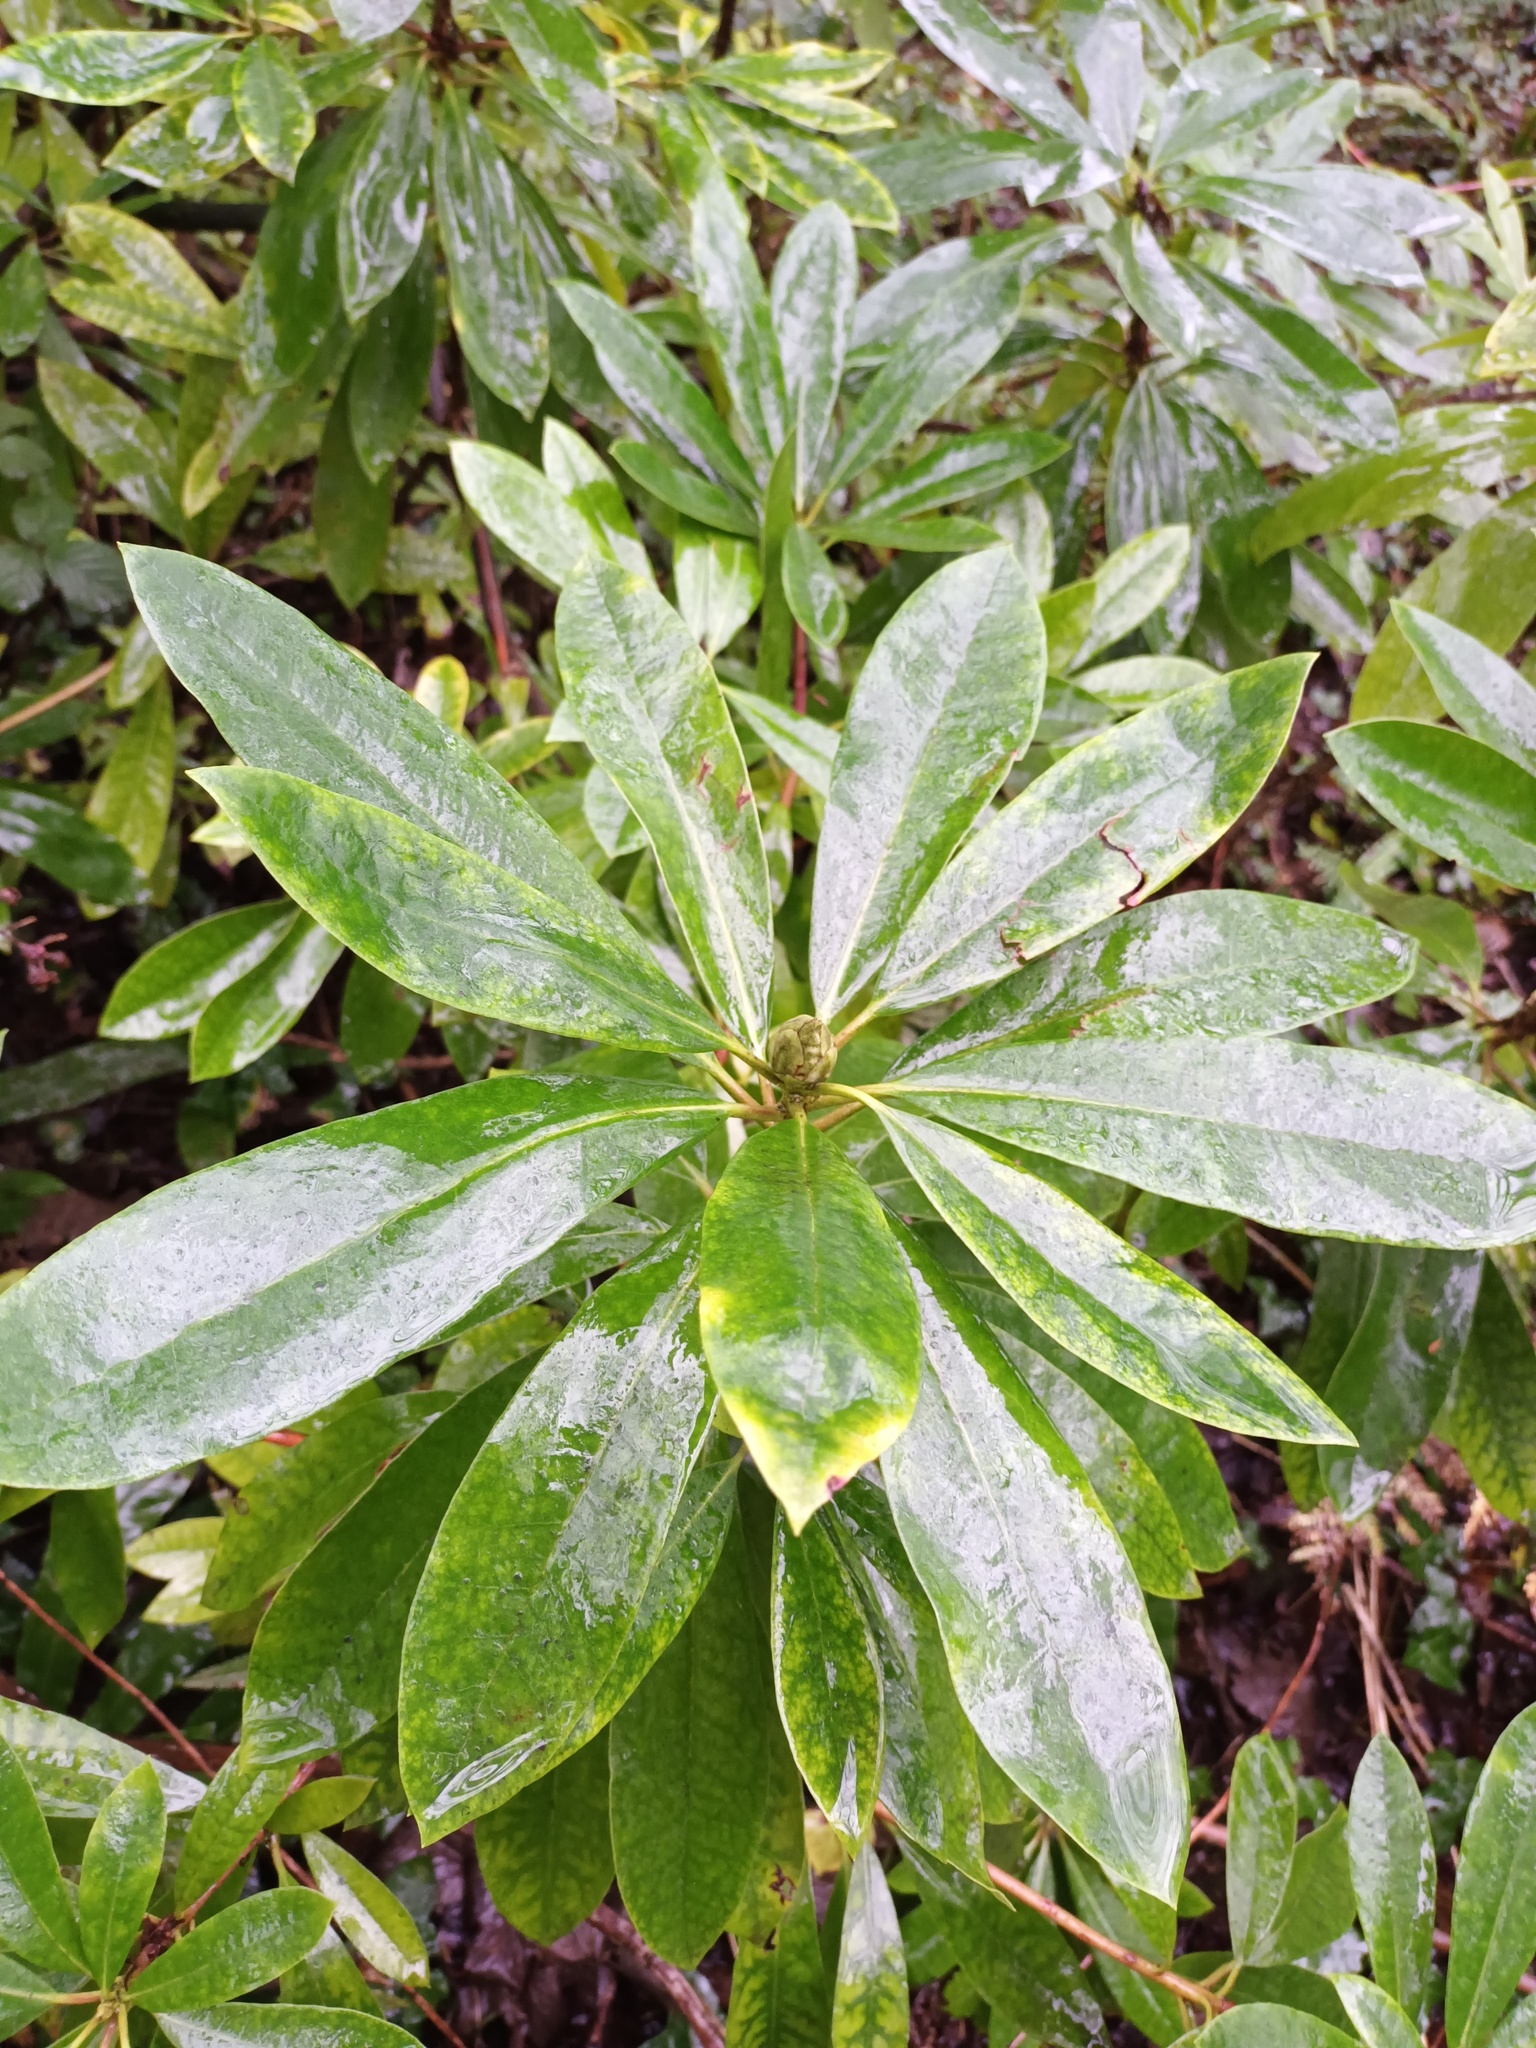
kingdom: Plantae
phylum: Tracheophyta
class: Magnoliopsida
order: Ericales
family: Ericaceae
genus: Rhododendron
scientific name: Rhododendron ponticum
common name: Rhododendron
